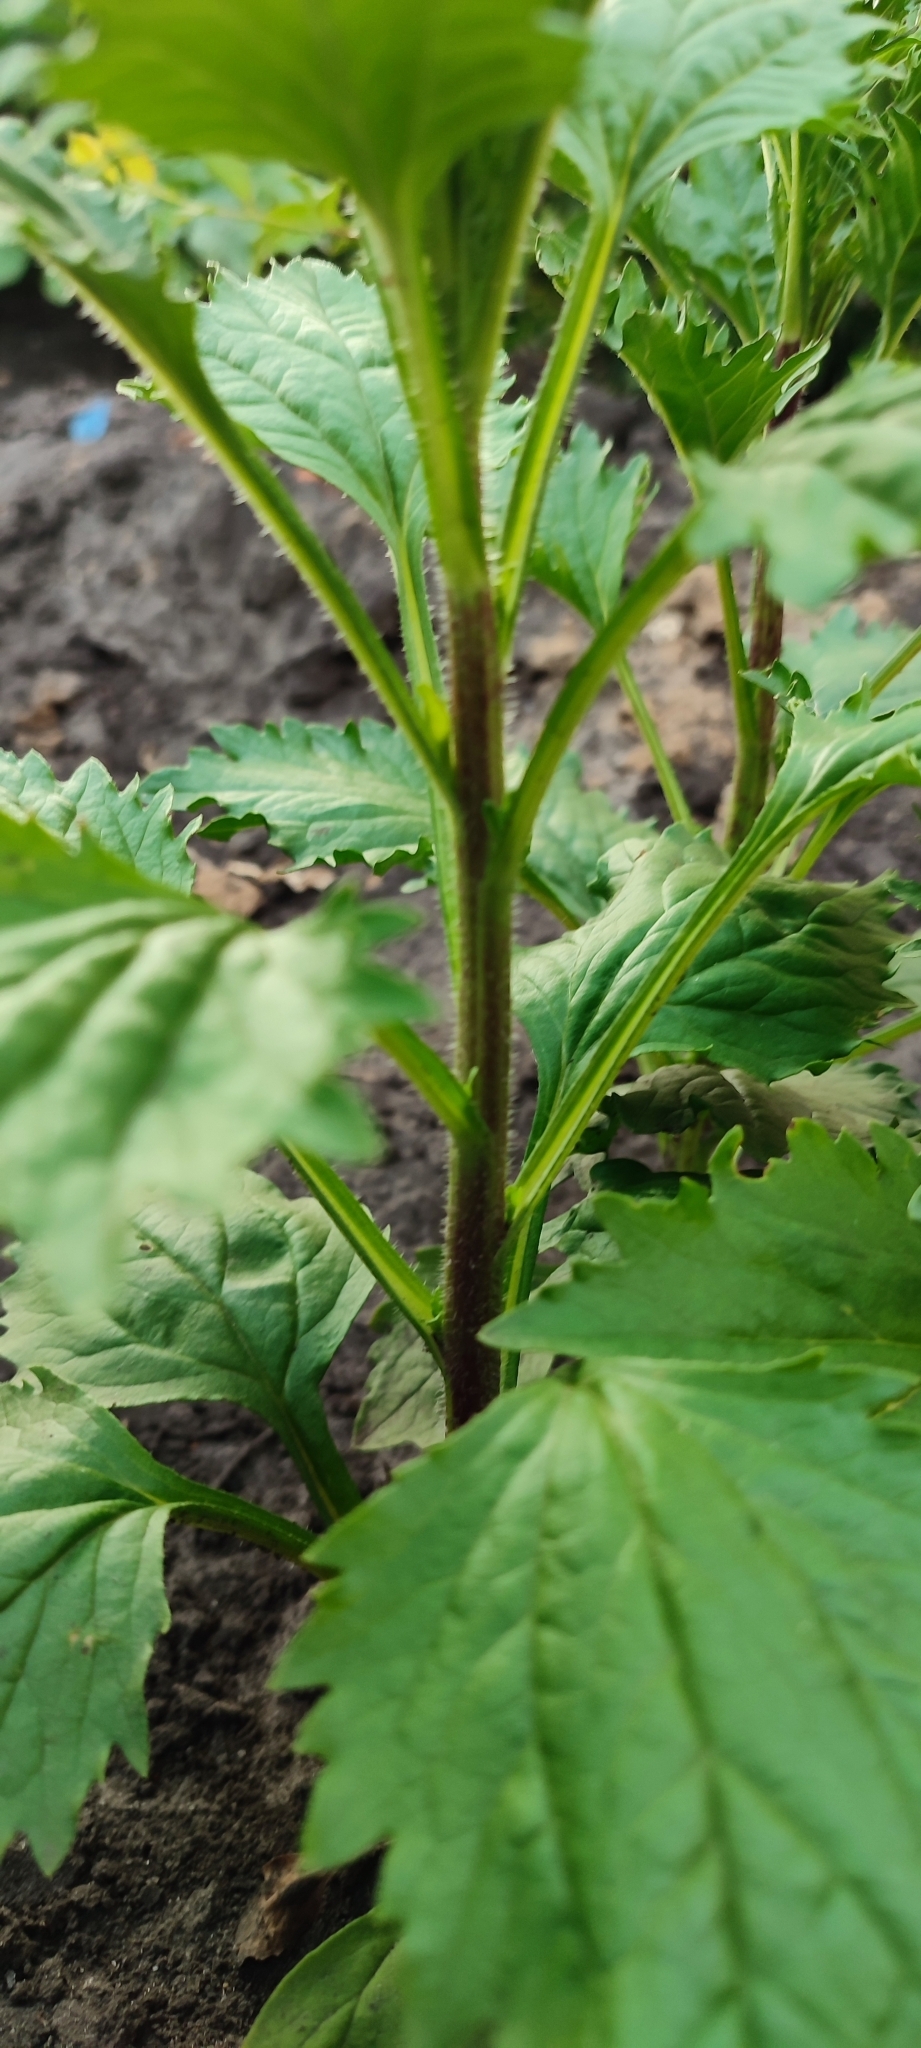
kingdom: Plantae
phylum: Tracheophyta
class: Magnoliopsida
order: Asterales
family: Asteraceae
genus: Callistephus
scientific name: Callistephus chinensis
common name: China aster
